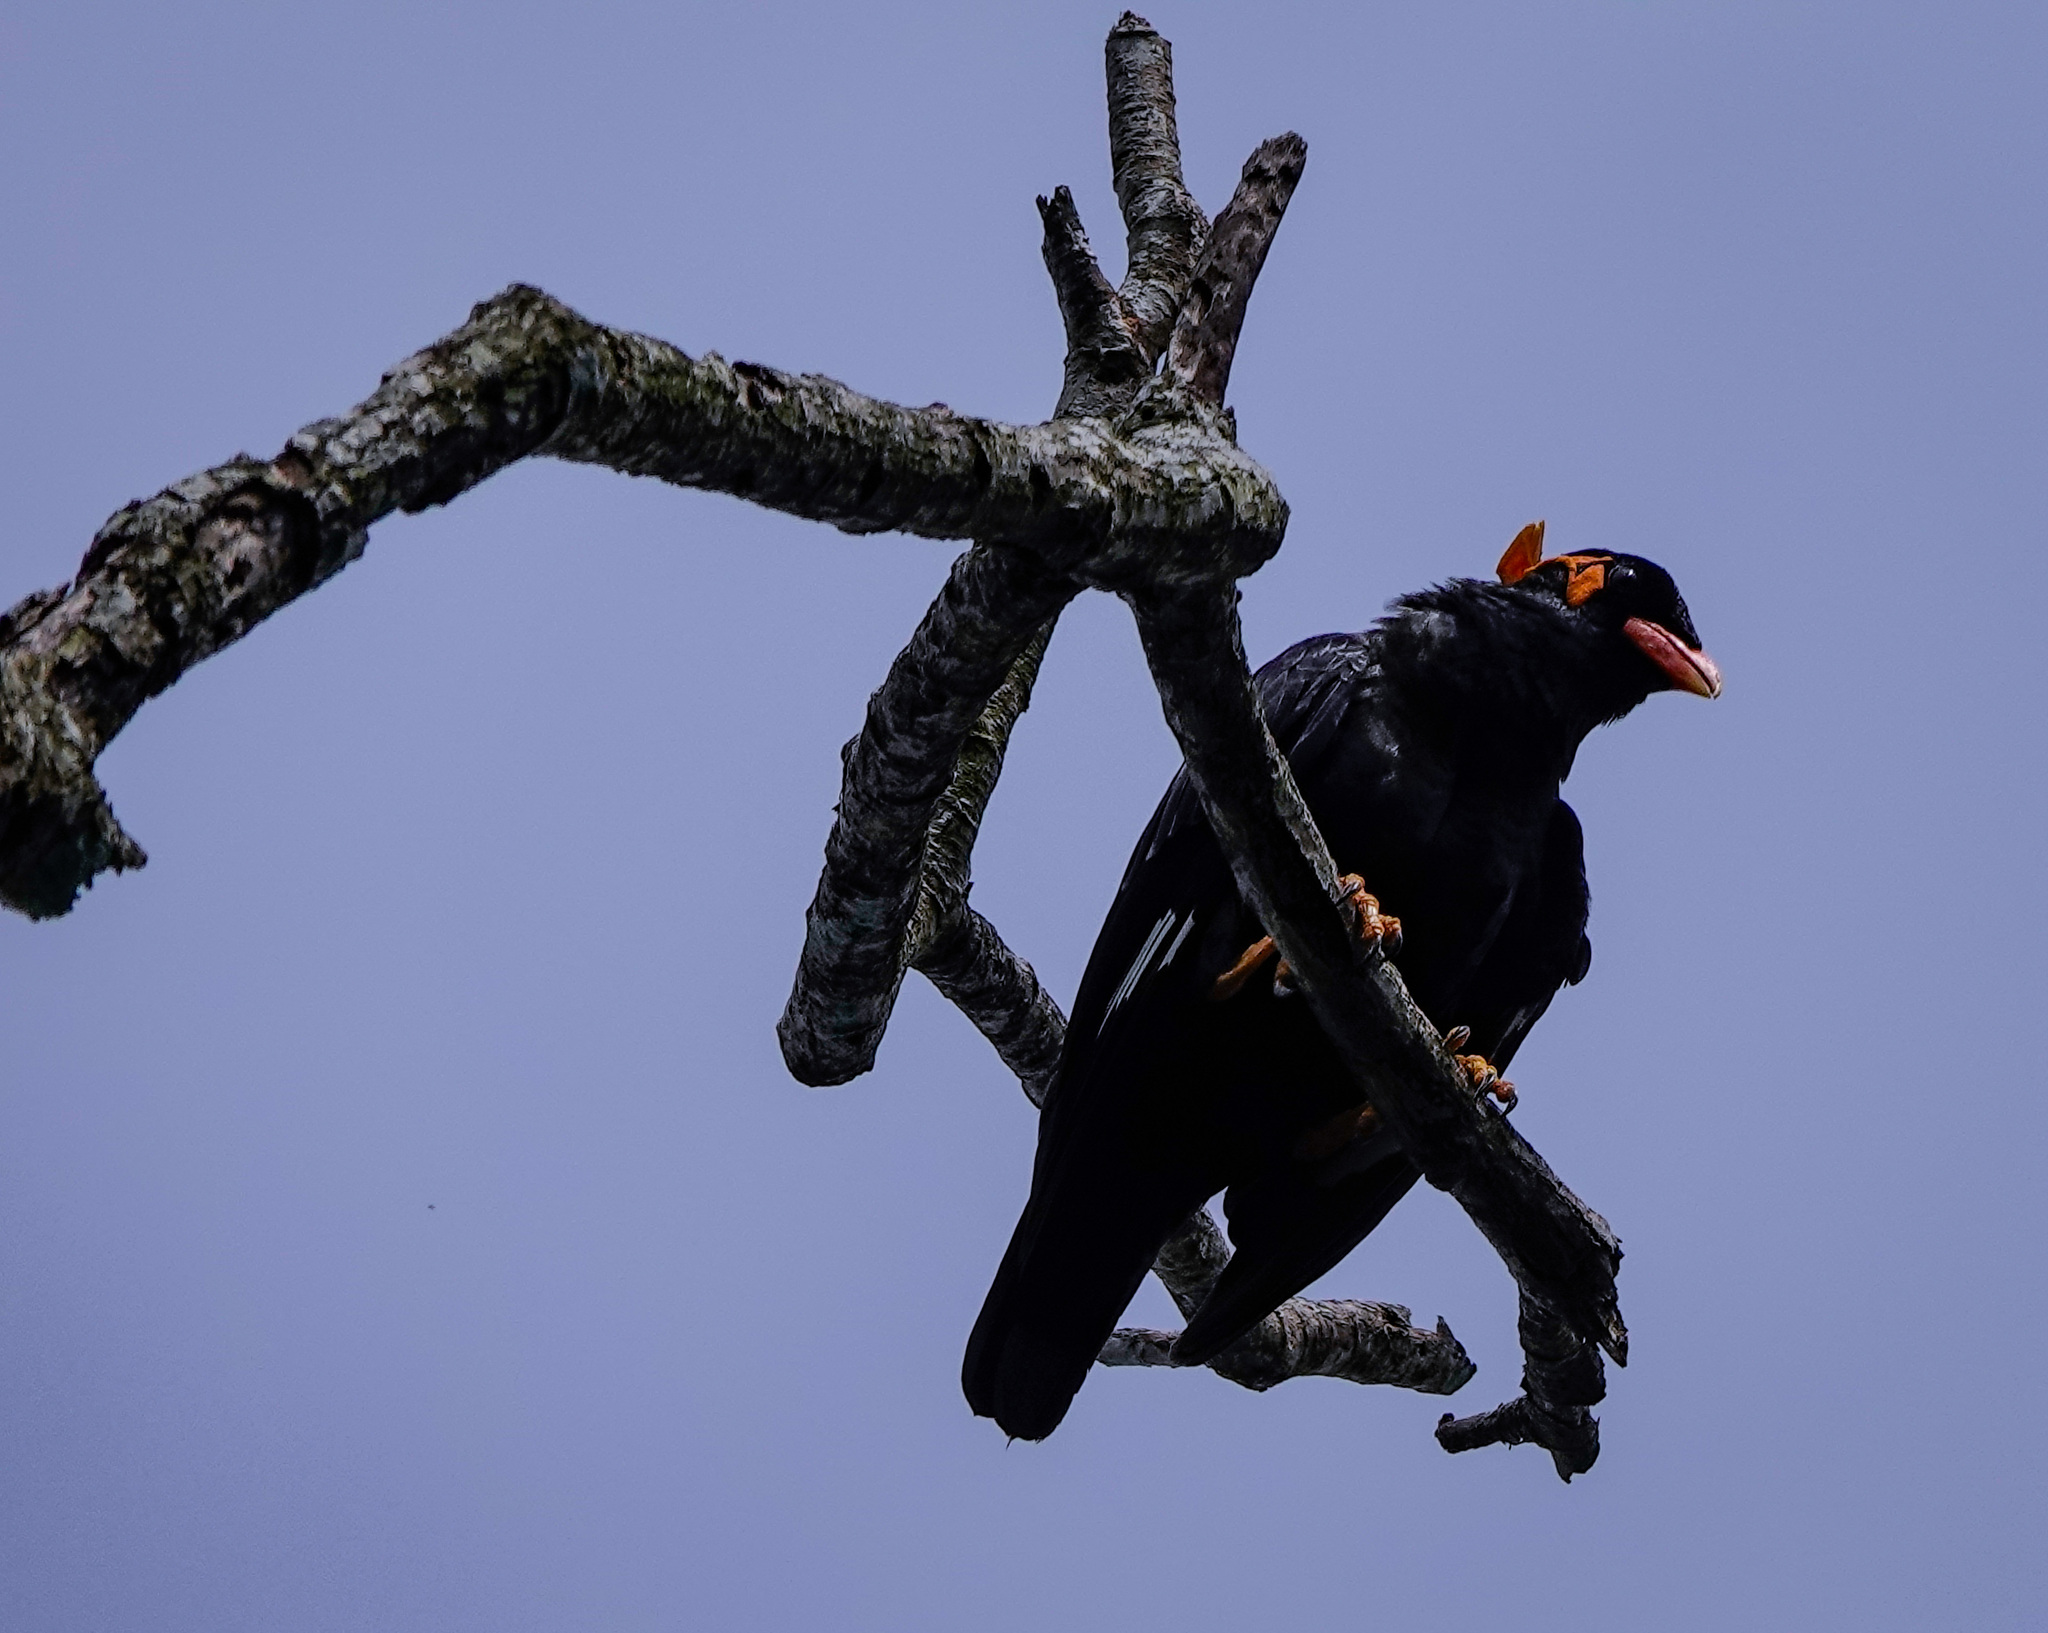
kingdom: Animalia
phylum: Chordata
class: Aves
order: Passeriformes
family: Sturnidae
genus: Gracula
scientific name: Gracula religiosa
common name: Common hill myna
